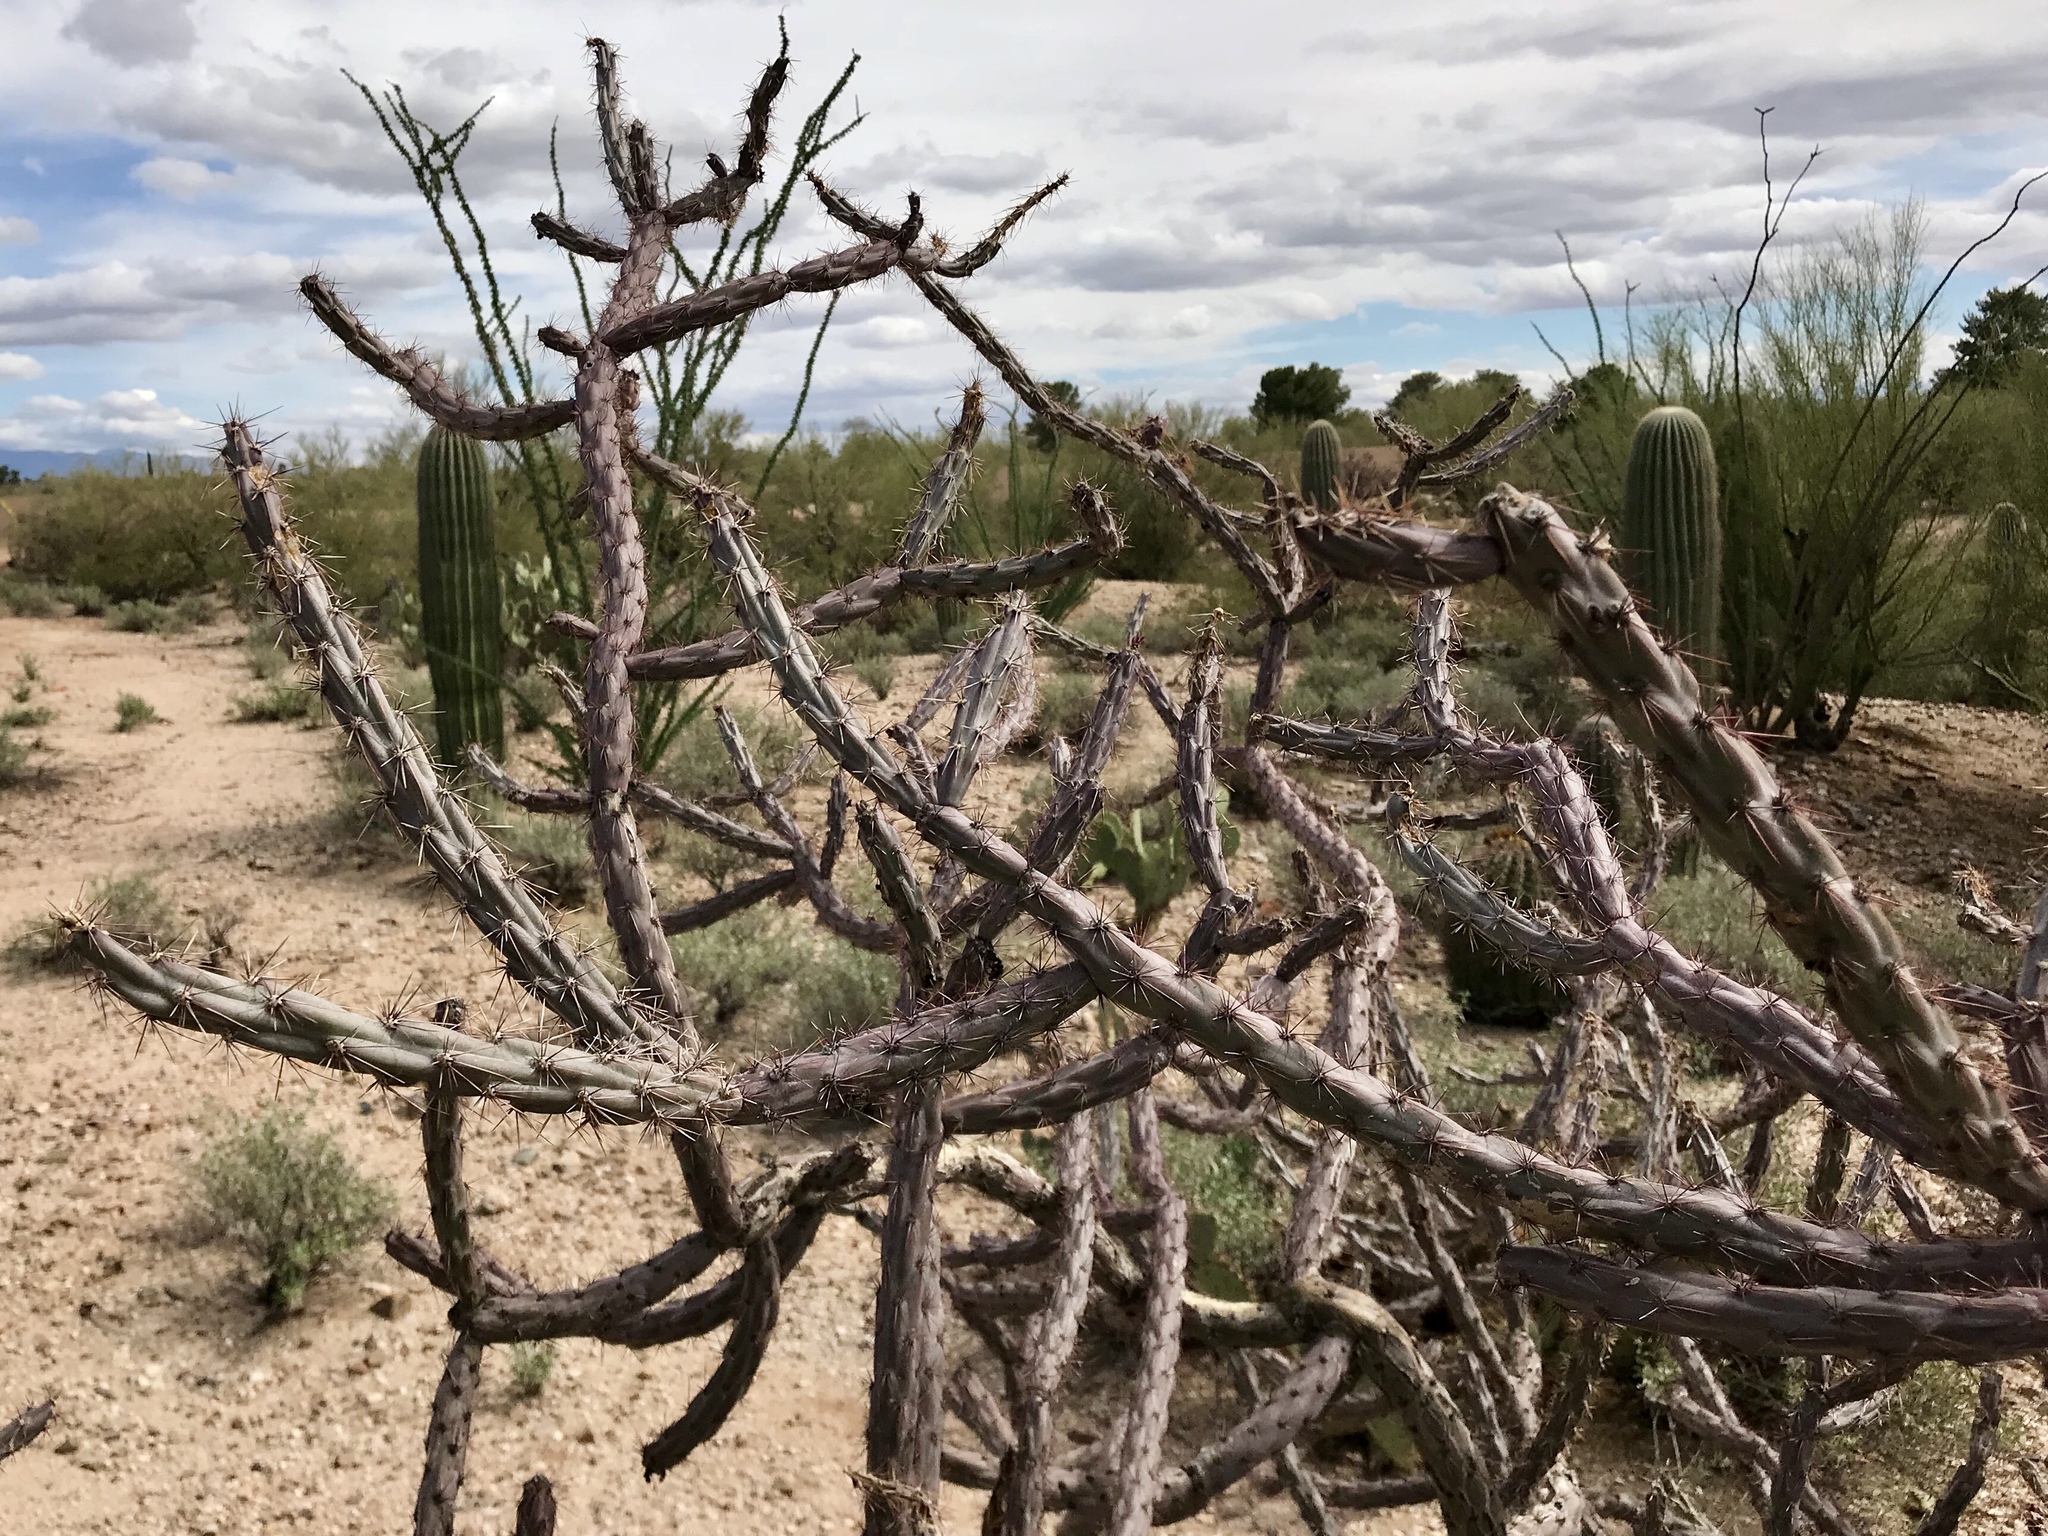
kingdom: Plantae
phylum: Tracheophyta
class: Magnoliopsida
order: Caryophyllales
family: Cactaceae
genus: Cylindropuntia
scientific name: Cylindropuntia thurberi
